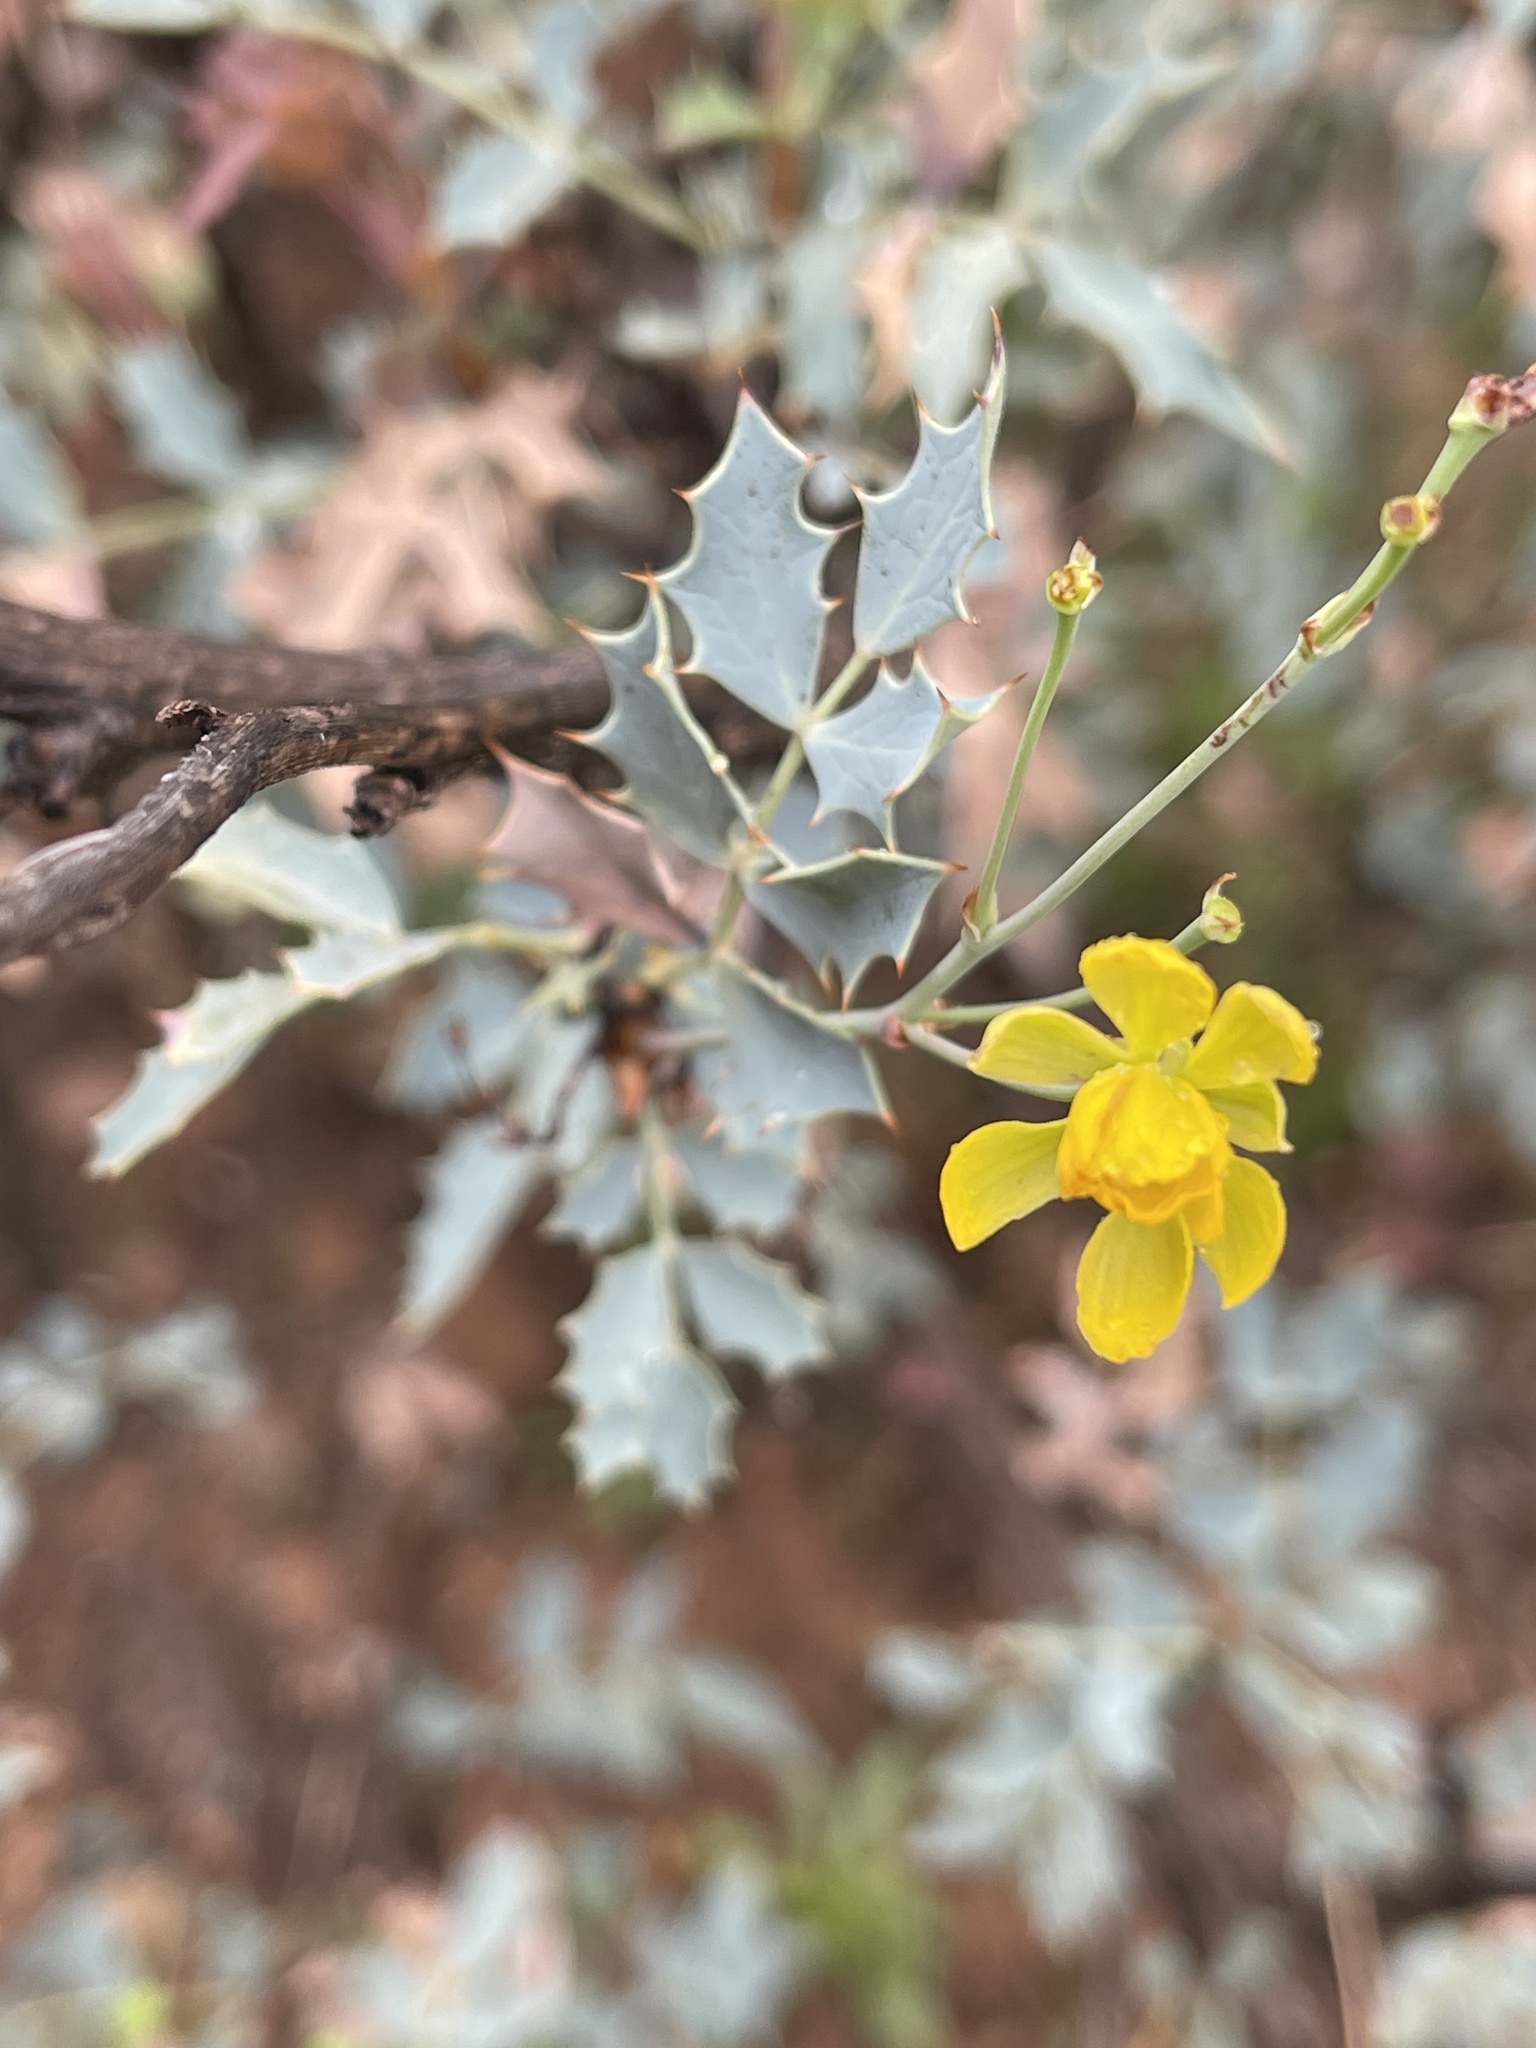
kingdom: Plantae
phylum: Tracheophyta
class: Magnoliopsida
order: Ranunculales
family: Berberidaceae
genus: Alloberberis
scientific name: Alloberberis fremontii
